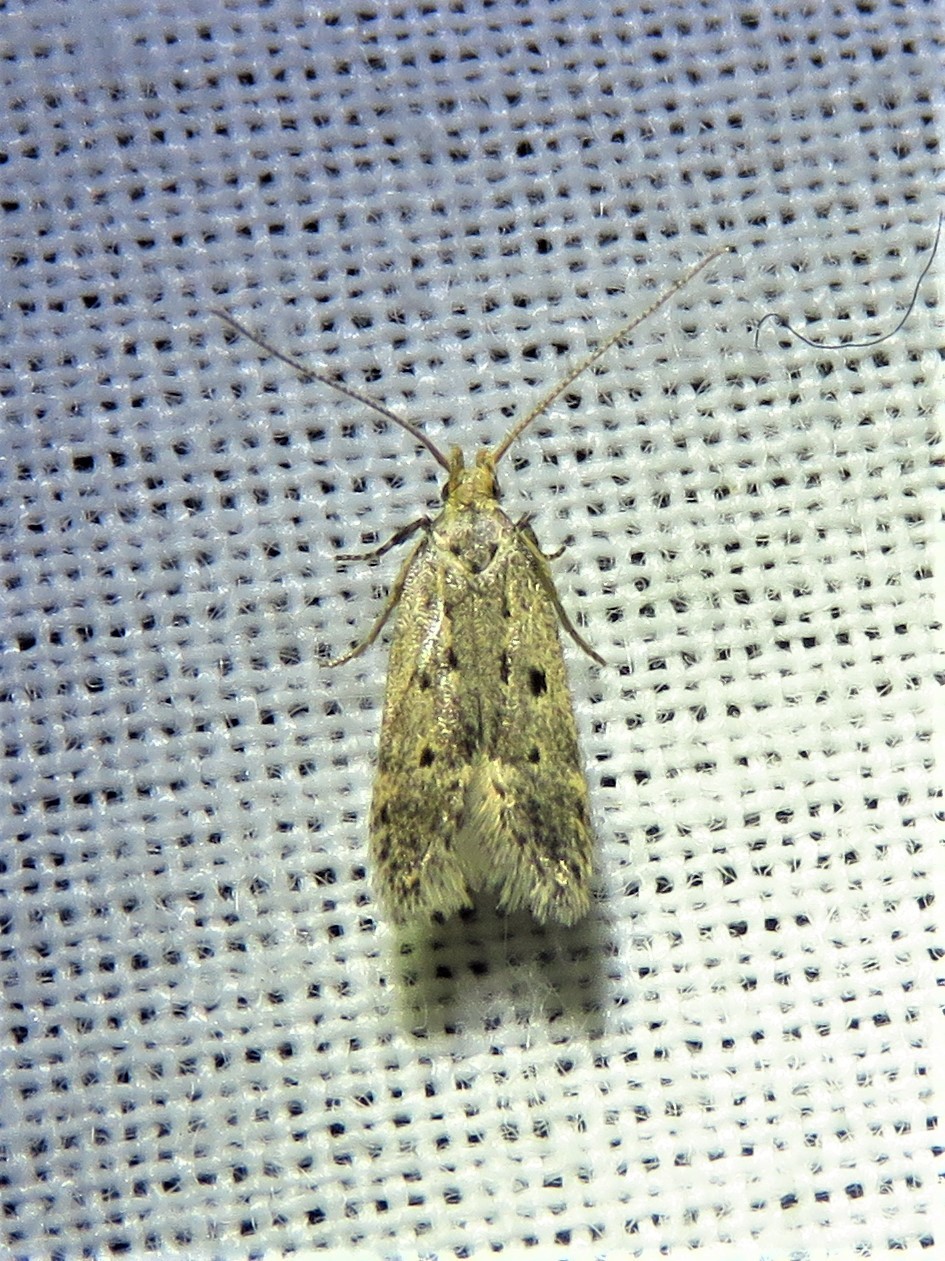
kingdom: Animalia
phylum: Arthropoda
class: Insecta
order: Lepidoptera
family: Gelechiidae
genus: Dichomeris
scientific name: Dichomeris punctipennella
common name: Many-spotted dichomeris moth
